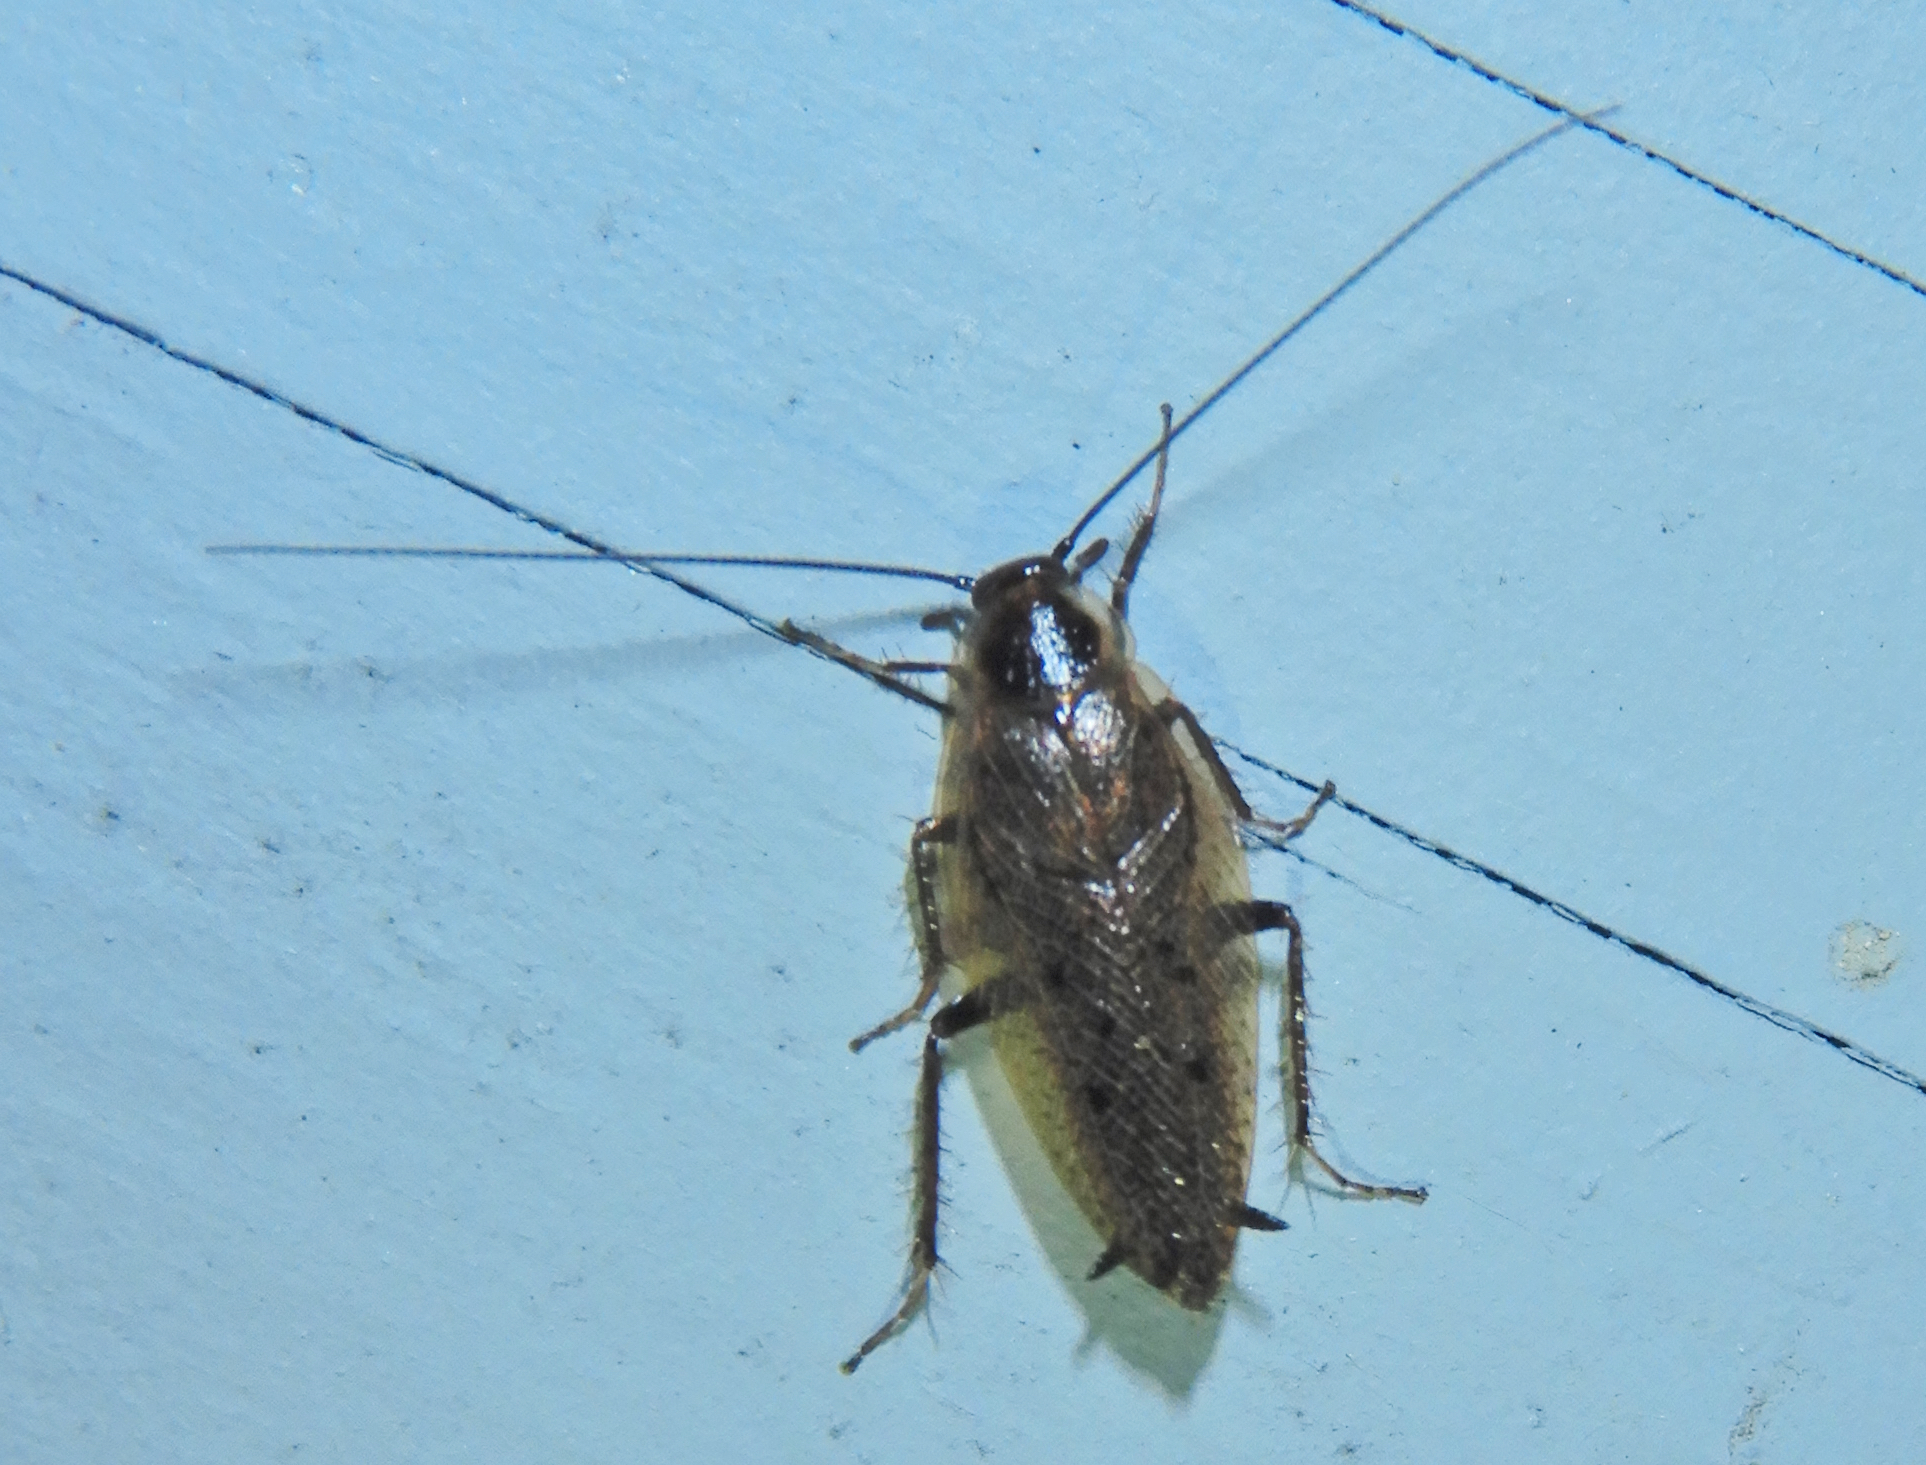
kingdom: Animalia
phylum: Arthropoda
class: Insecta
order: Blattodea
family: Ectobiidae
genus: Ectobius
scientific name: Ectobius lapponicus
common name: Dusky cockroach
